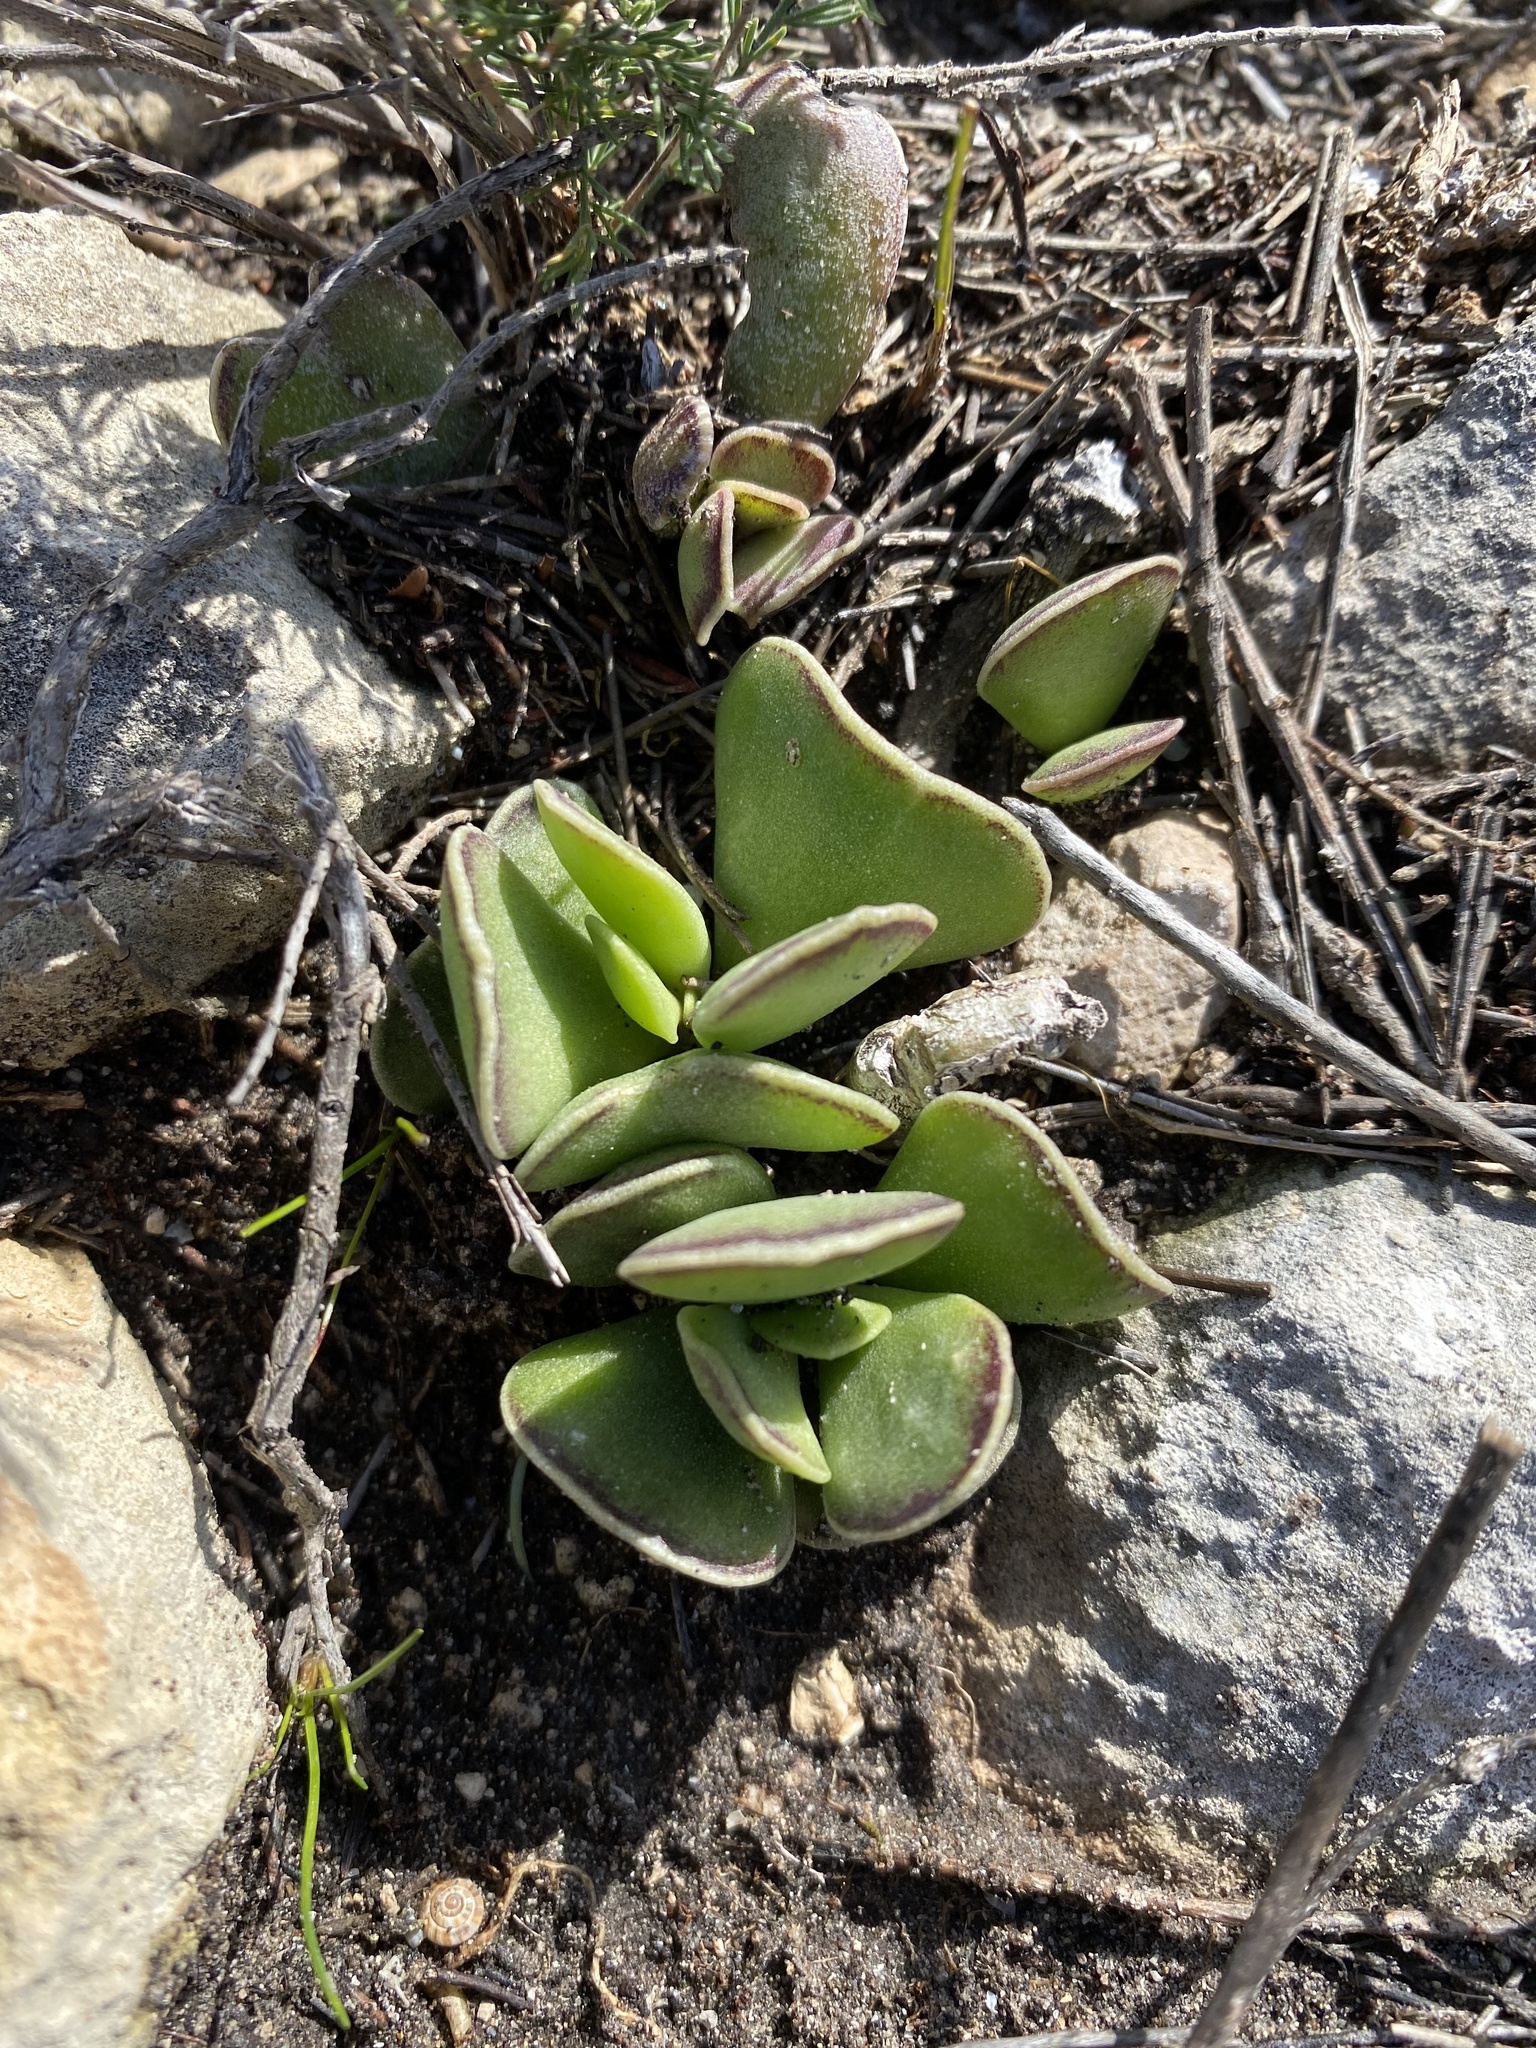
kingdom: Plantae
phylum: Tracheophyta
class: Magnoliopsida
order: Saxifragales
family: Crassulaceae
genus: Adromischus
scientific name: Adromischus caryophyllaceus
